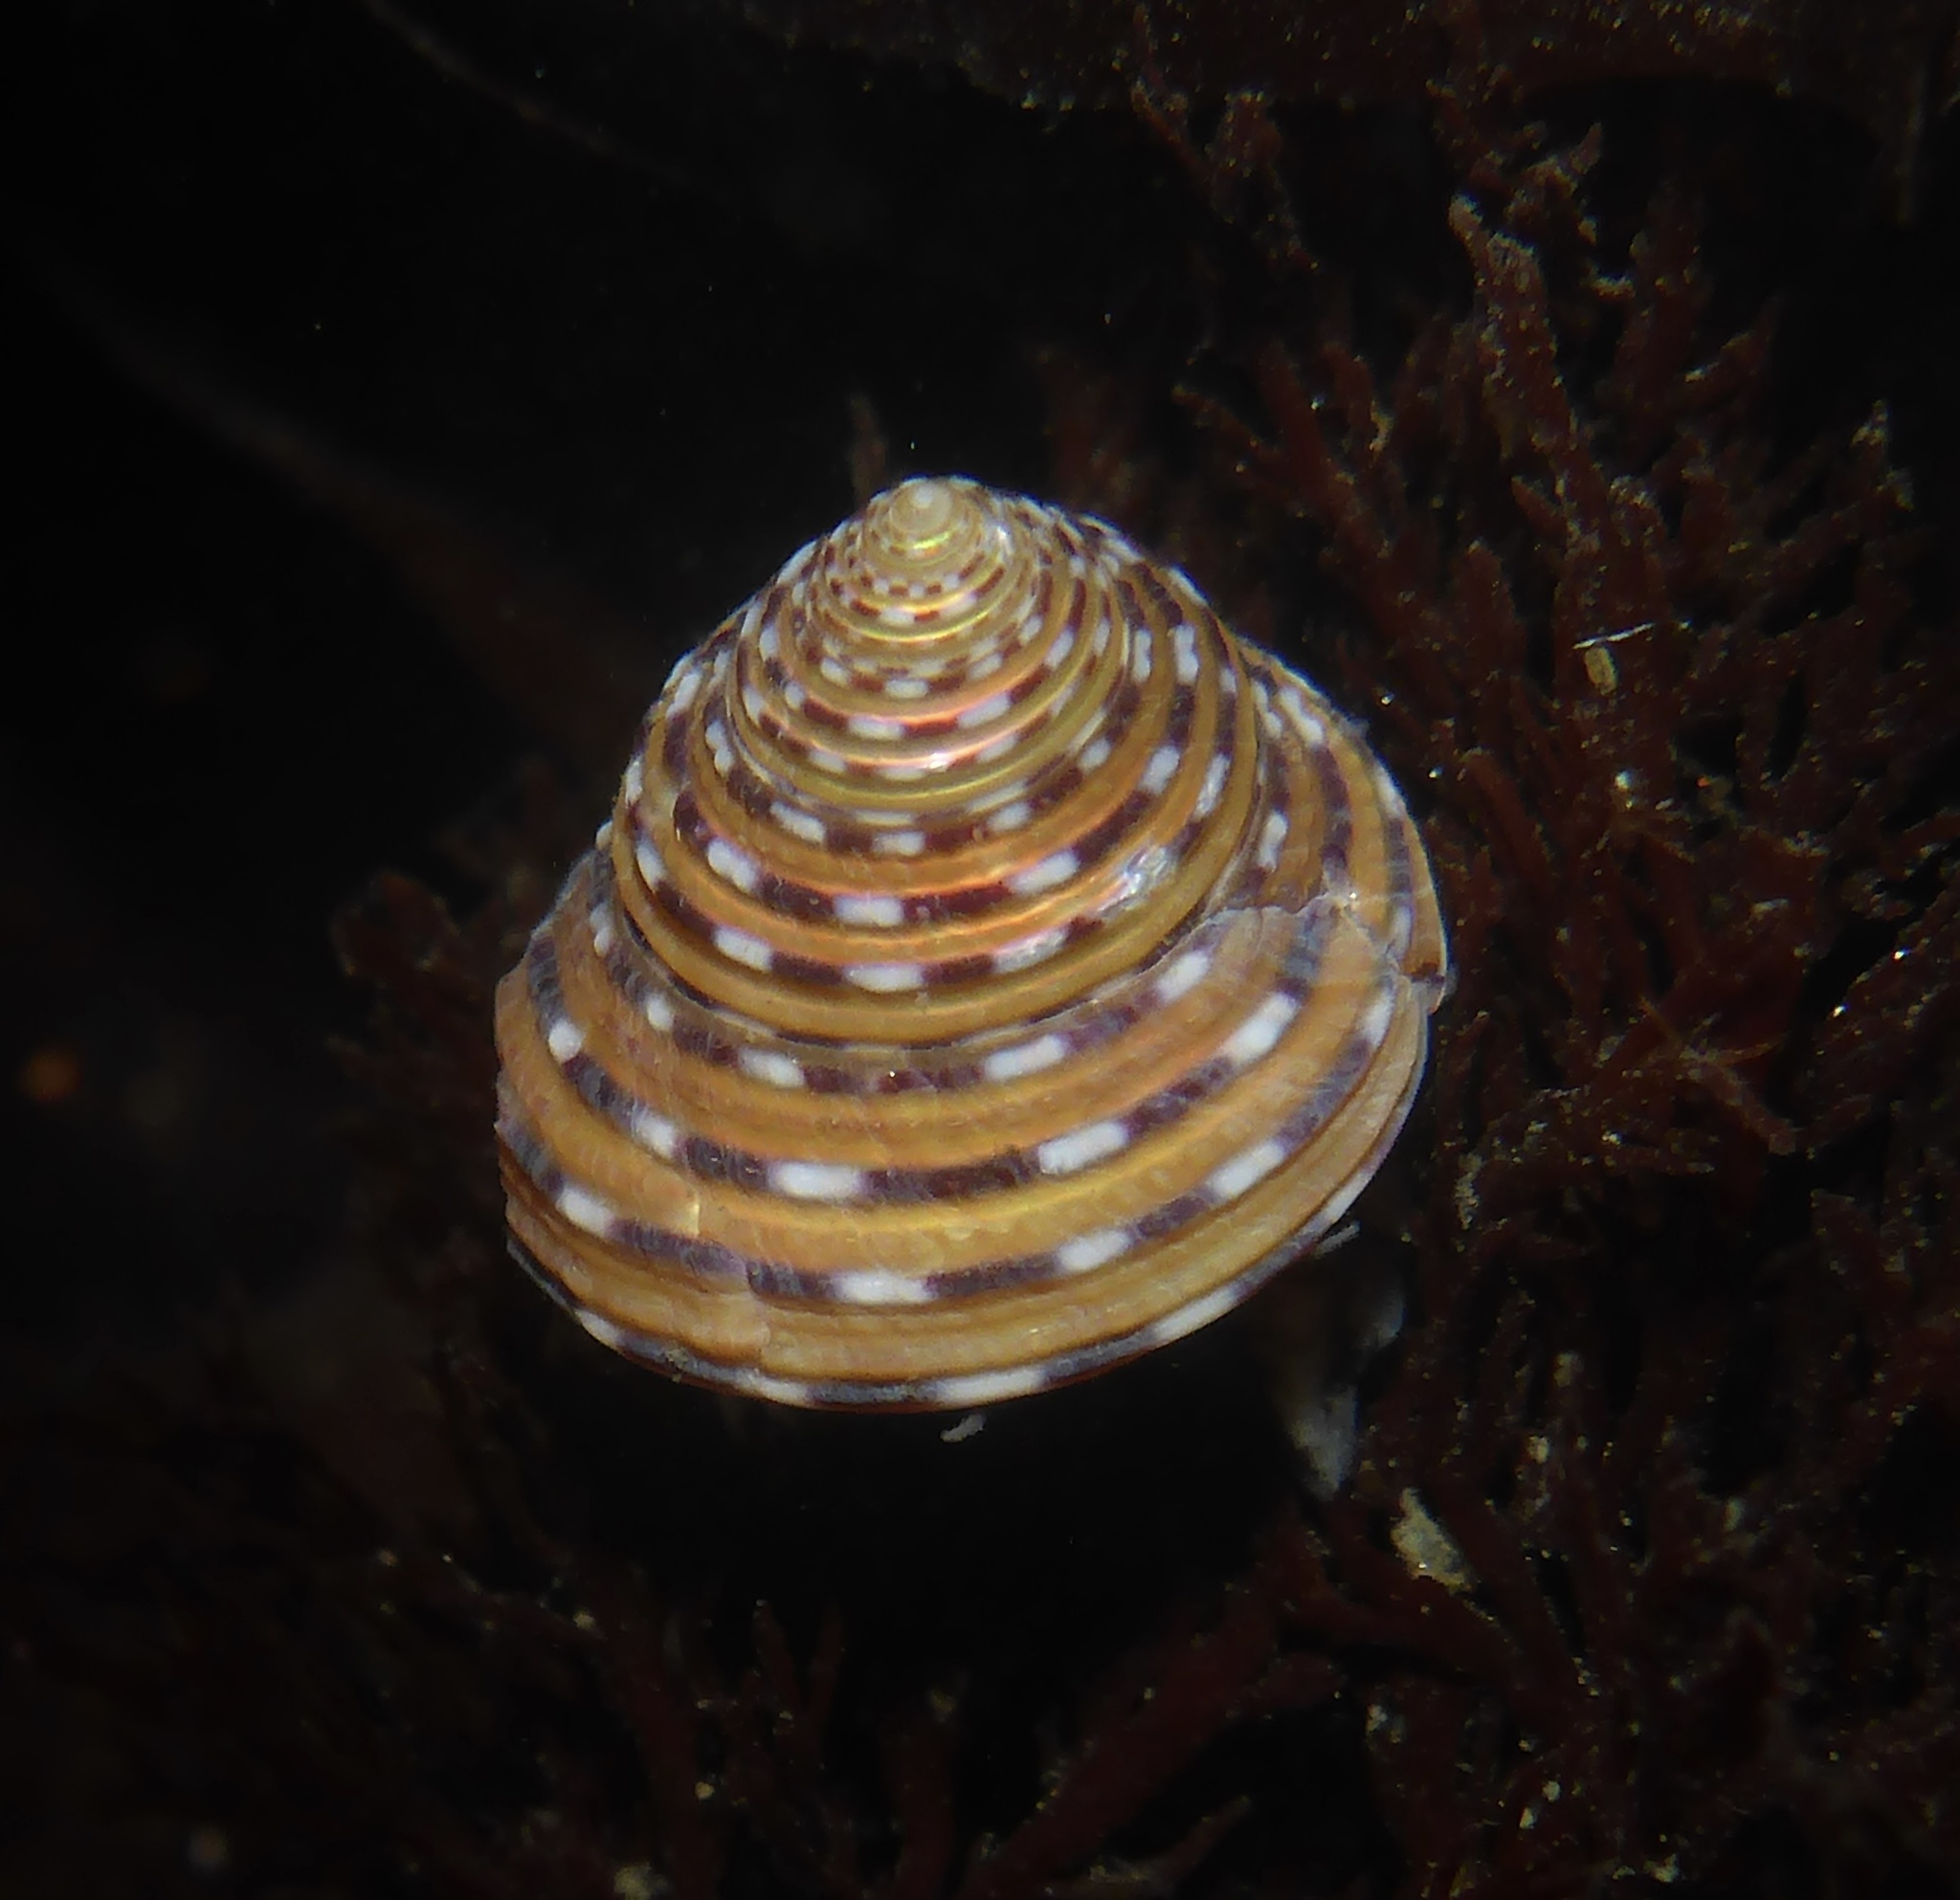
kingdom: Animalia
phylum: Mollusca
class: Gastropoda
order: Trochida
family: Calliostomatidae
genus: Calliostoma
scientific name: Calliostoma tricolor
